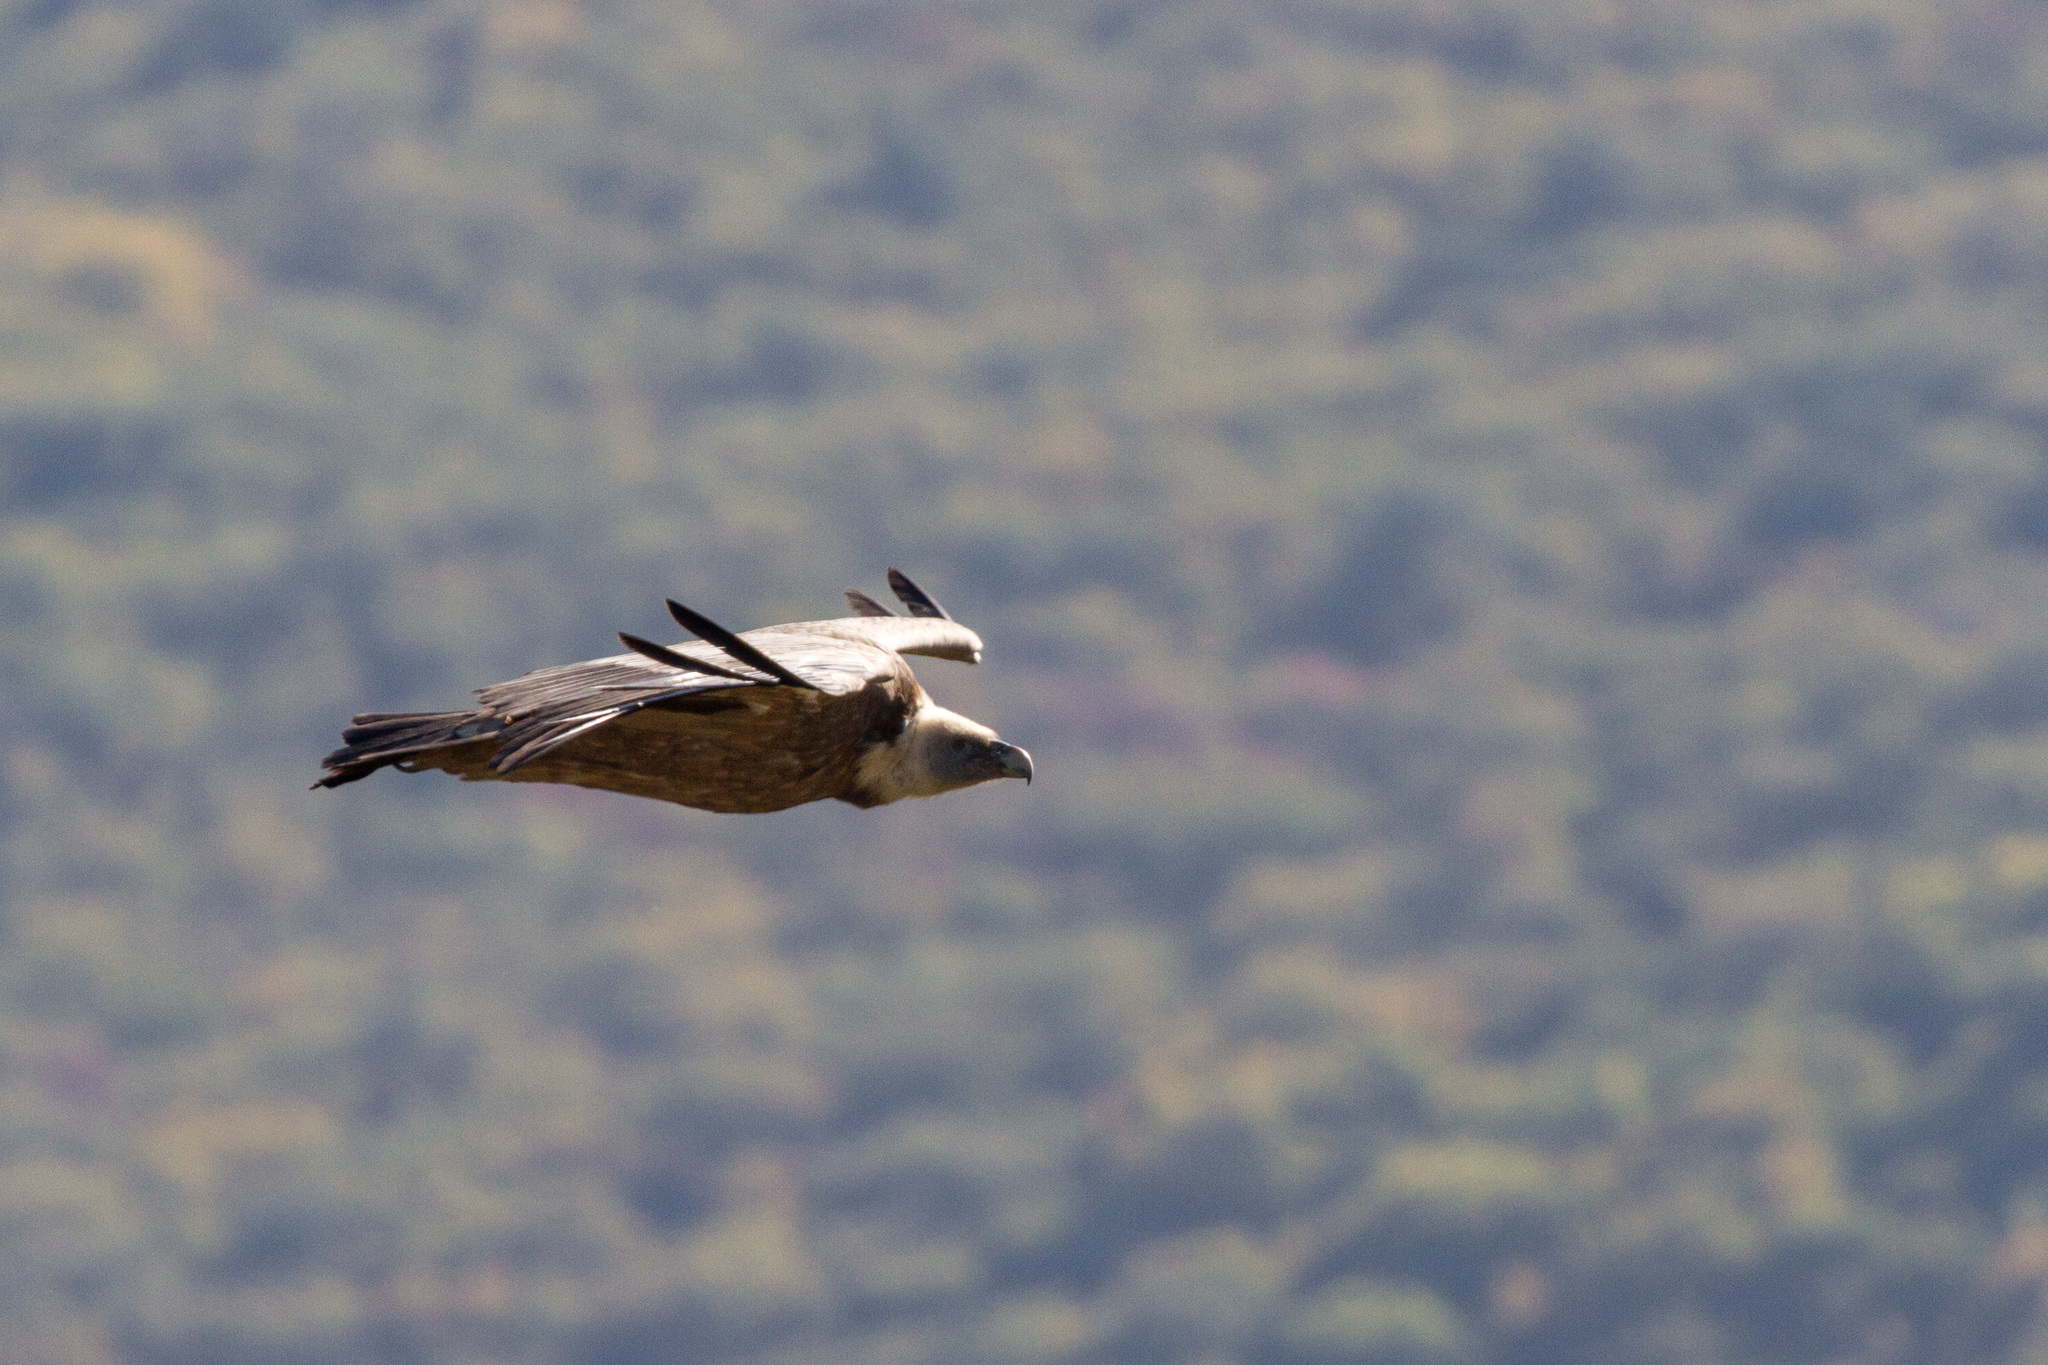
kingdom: Animalia
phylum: Chordata
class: Aves
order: Accipitriformes
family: Accipitridae
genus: Gyps
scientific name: Gyps fulvus
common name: Griffon vulture
